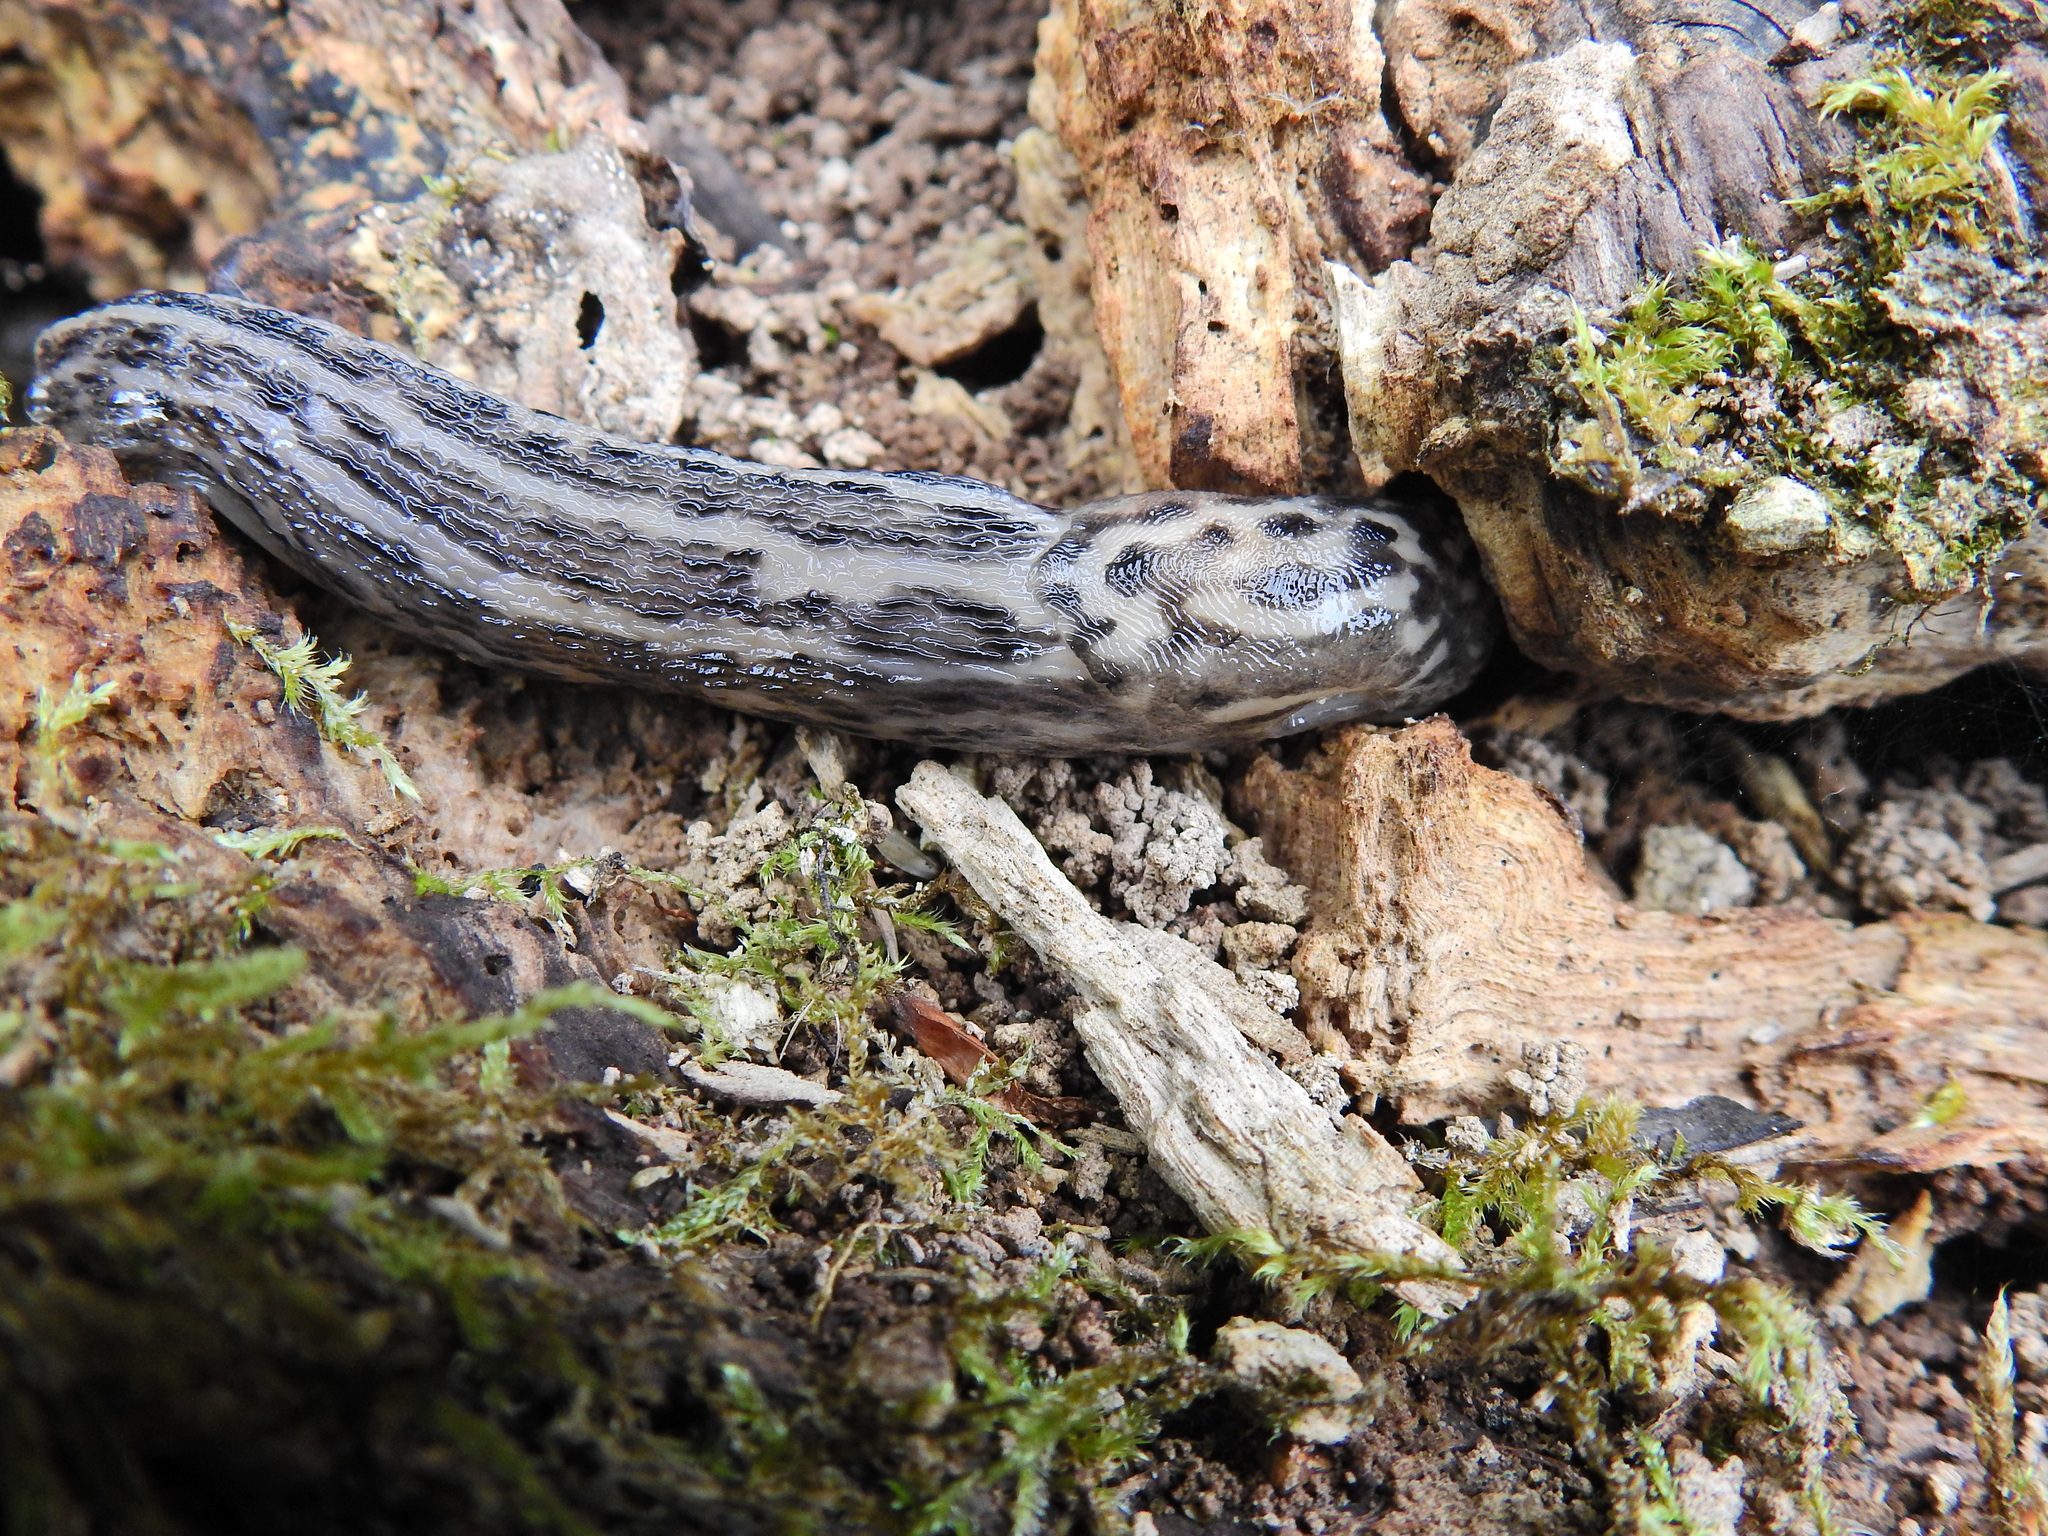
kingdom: Animalia
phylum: Mollusca
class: Gastropoda
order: Stylommatophora
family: Limacidae
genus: Limax
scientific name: Limax maximus
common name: Great grey slug
